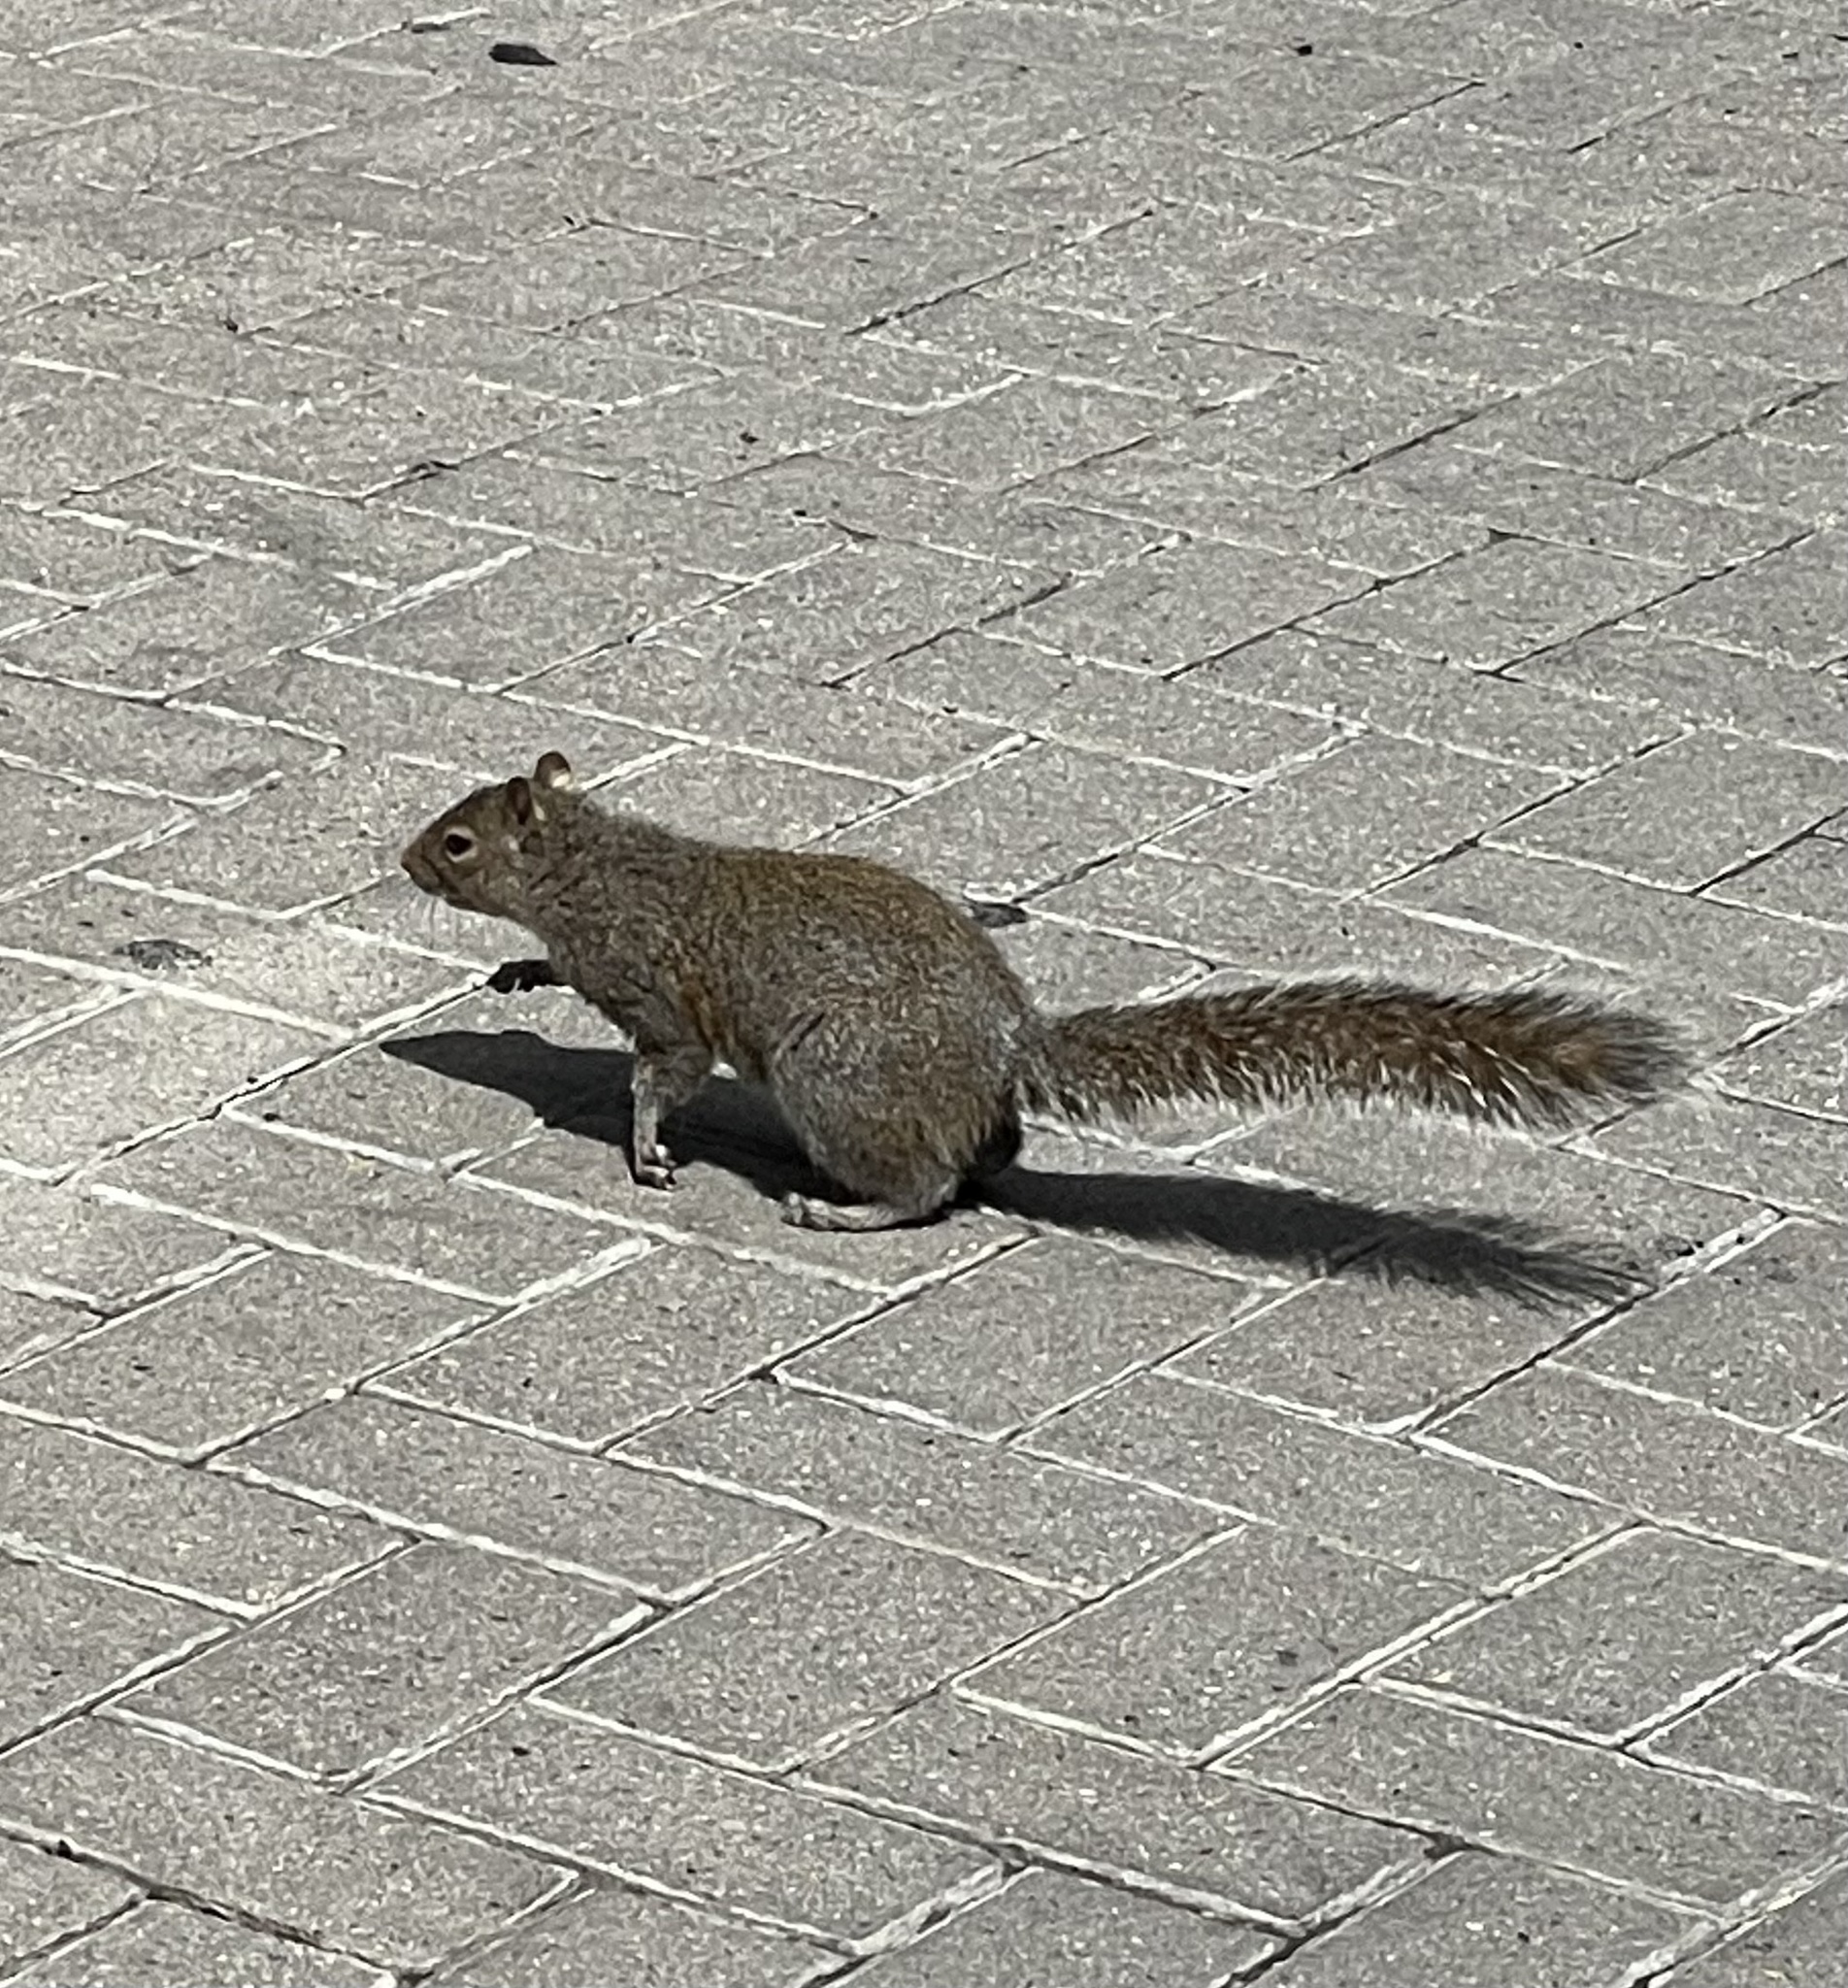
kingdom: Animalia
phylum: Chordata
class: Mammalia
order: Rodentia
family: Sciuridae
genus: Sciurus
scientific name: Sciurus carolinensis
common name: Eastern gray squirrel
